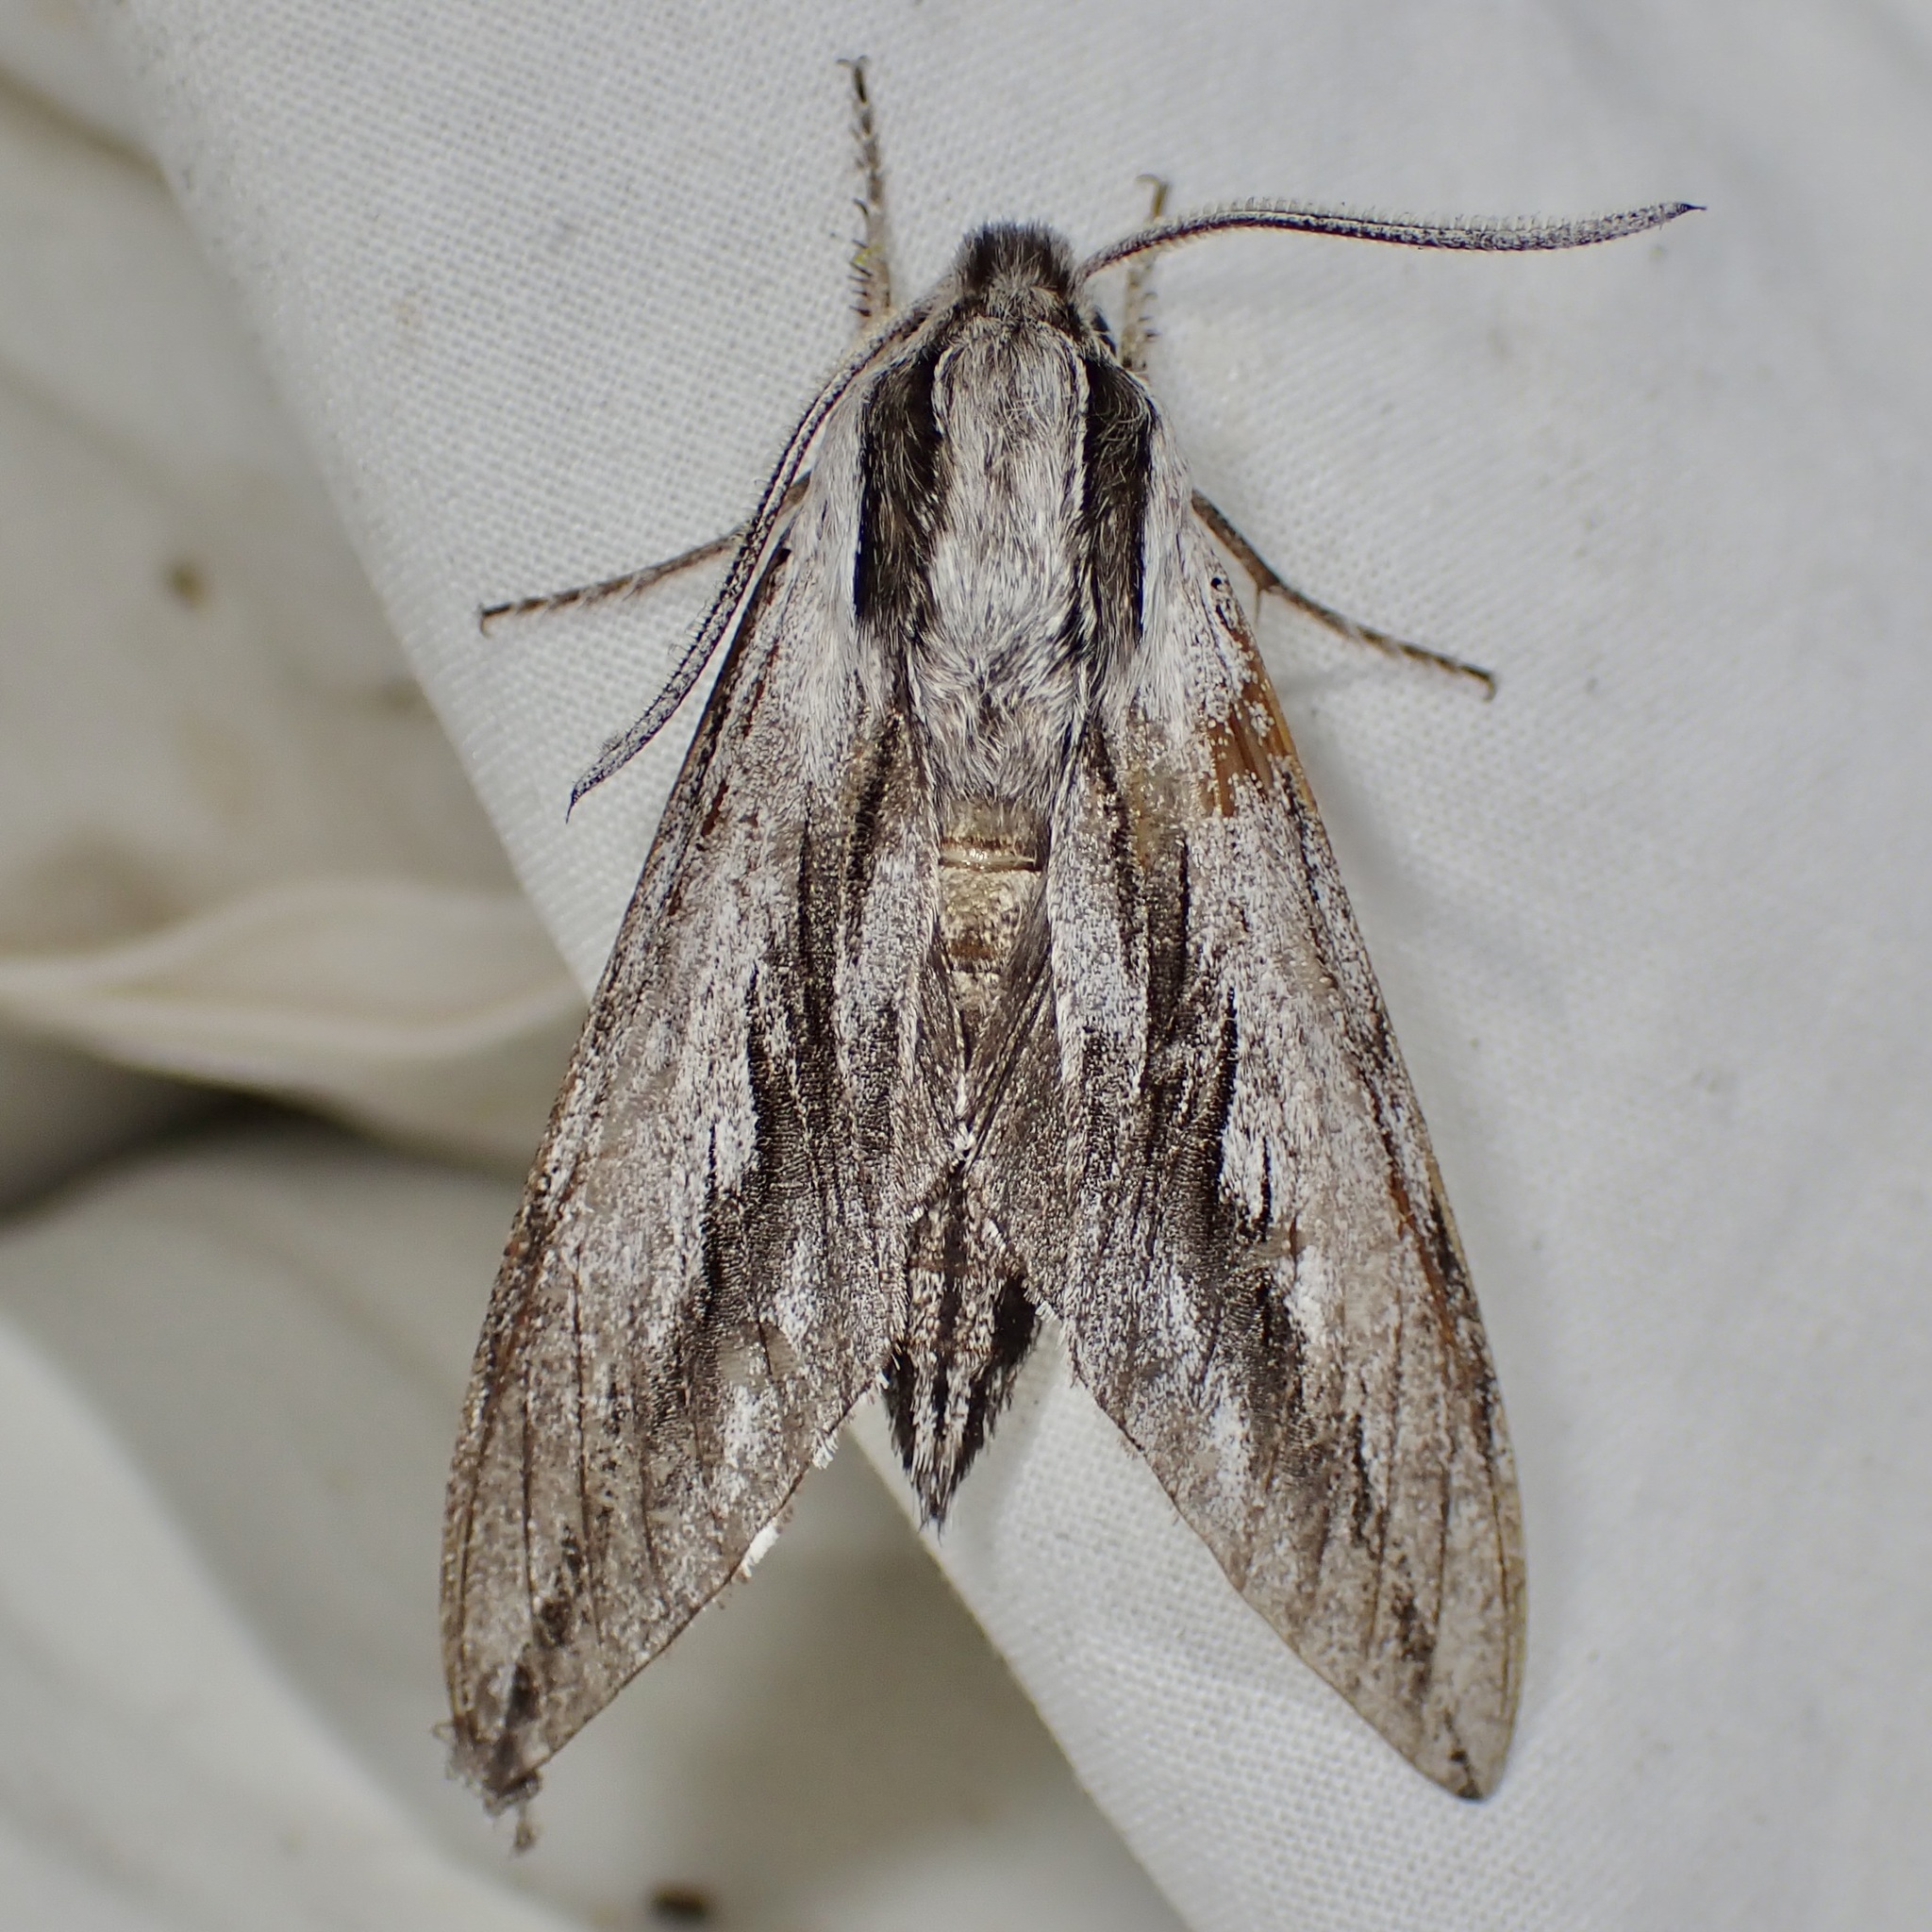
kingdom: Animalia
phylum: Arthropoda
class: Insecta
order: Lepidoptera
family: Sphingidae
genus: Sphinx
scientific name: Sphinx dollii
